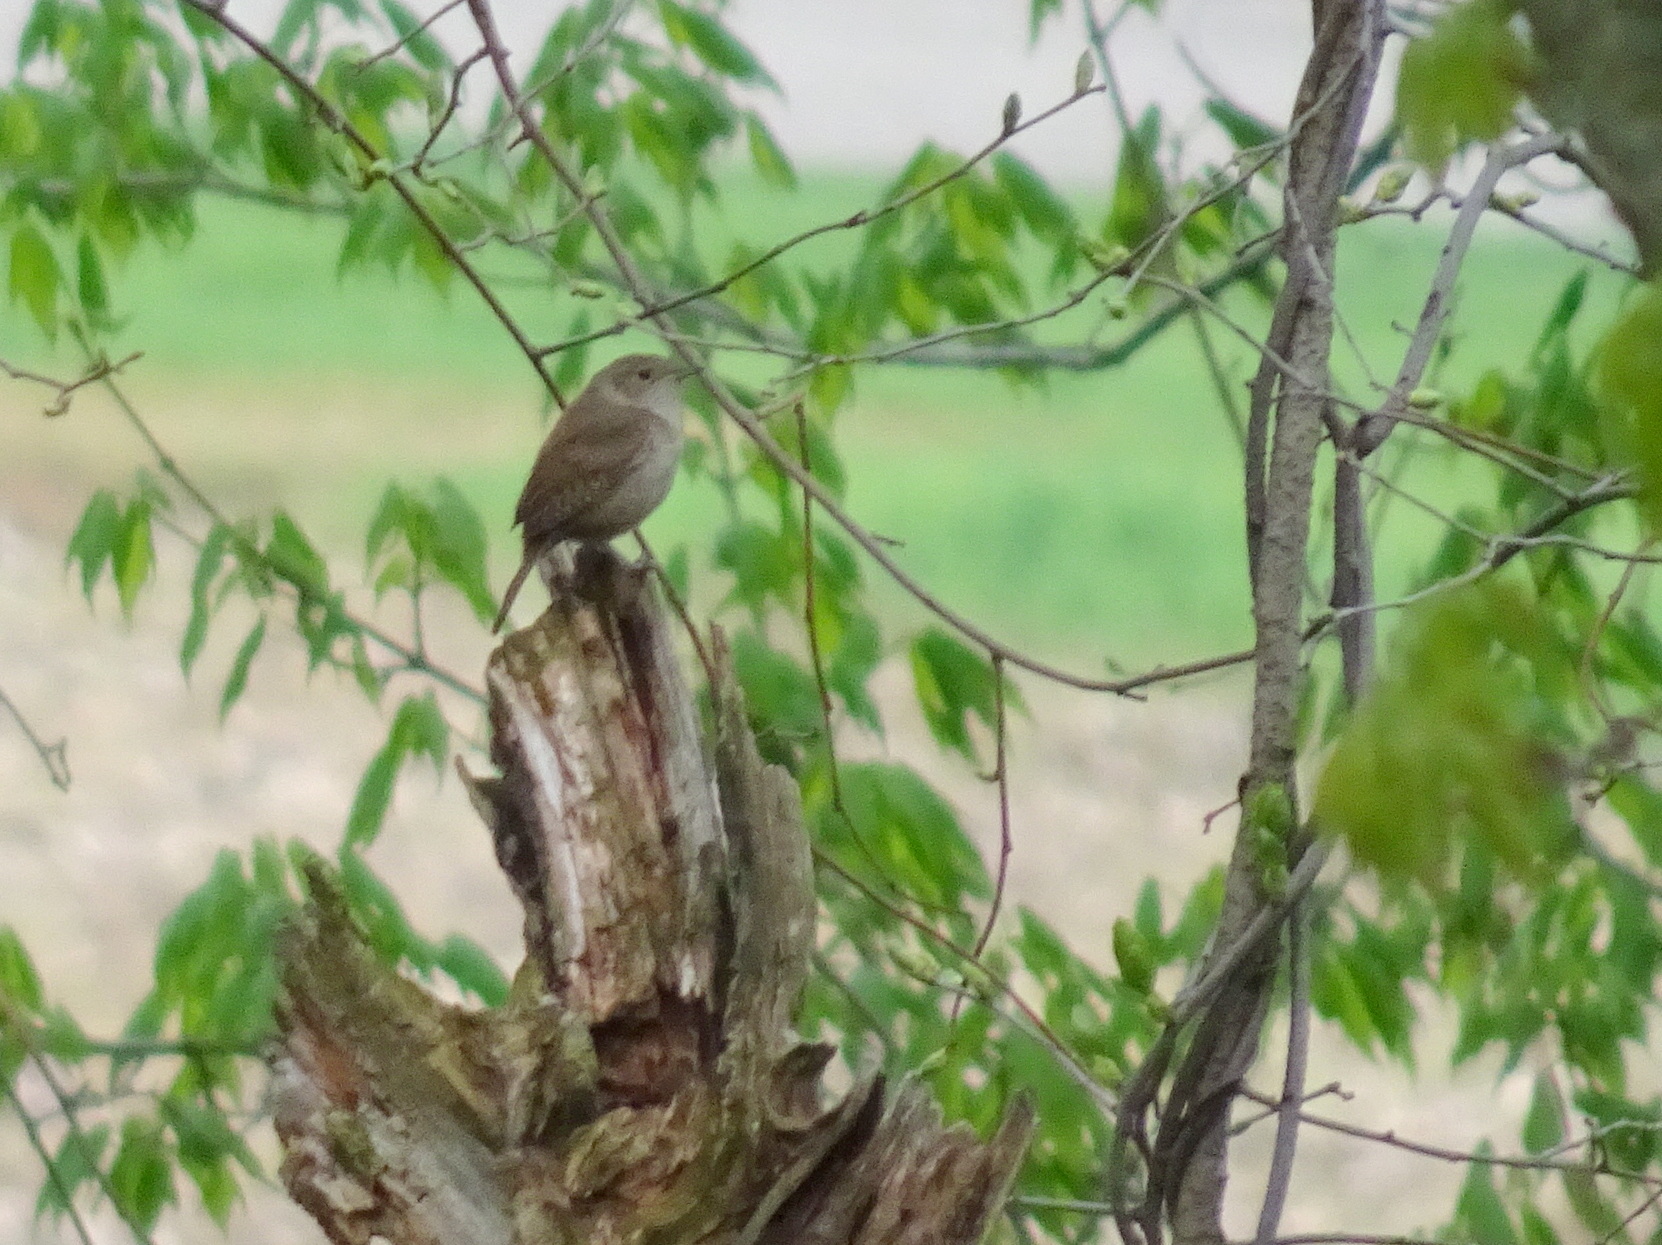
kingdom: Animalia
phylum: Chordata
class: Aves
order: Passeriformes
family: Troglodytidae
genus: Troglodytes
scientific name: Troglodytes aedon
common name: House wren
